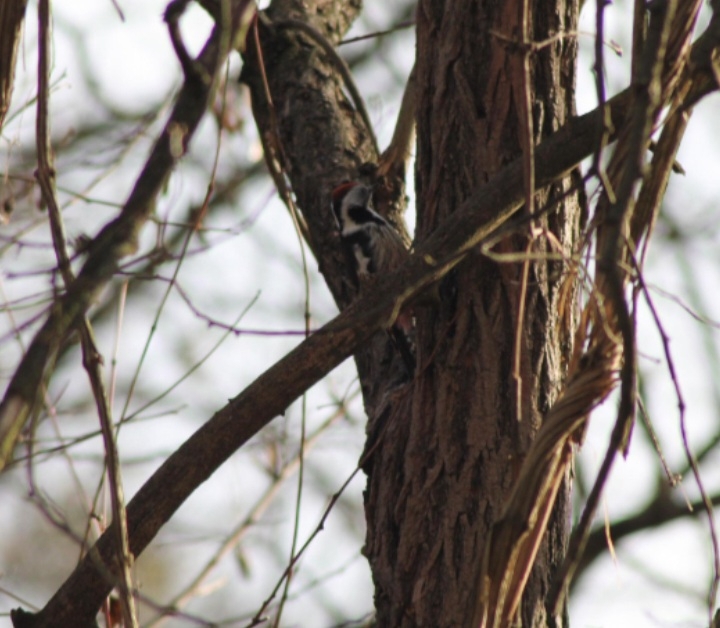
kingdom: Animalia
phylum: Chordata
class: Aves
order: Piciformes
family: Picidae
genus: Dendrocoptes
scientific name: Dendrocoptes medius
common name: Middle spotted woodpecker
